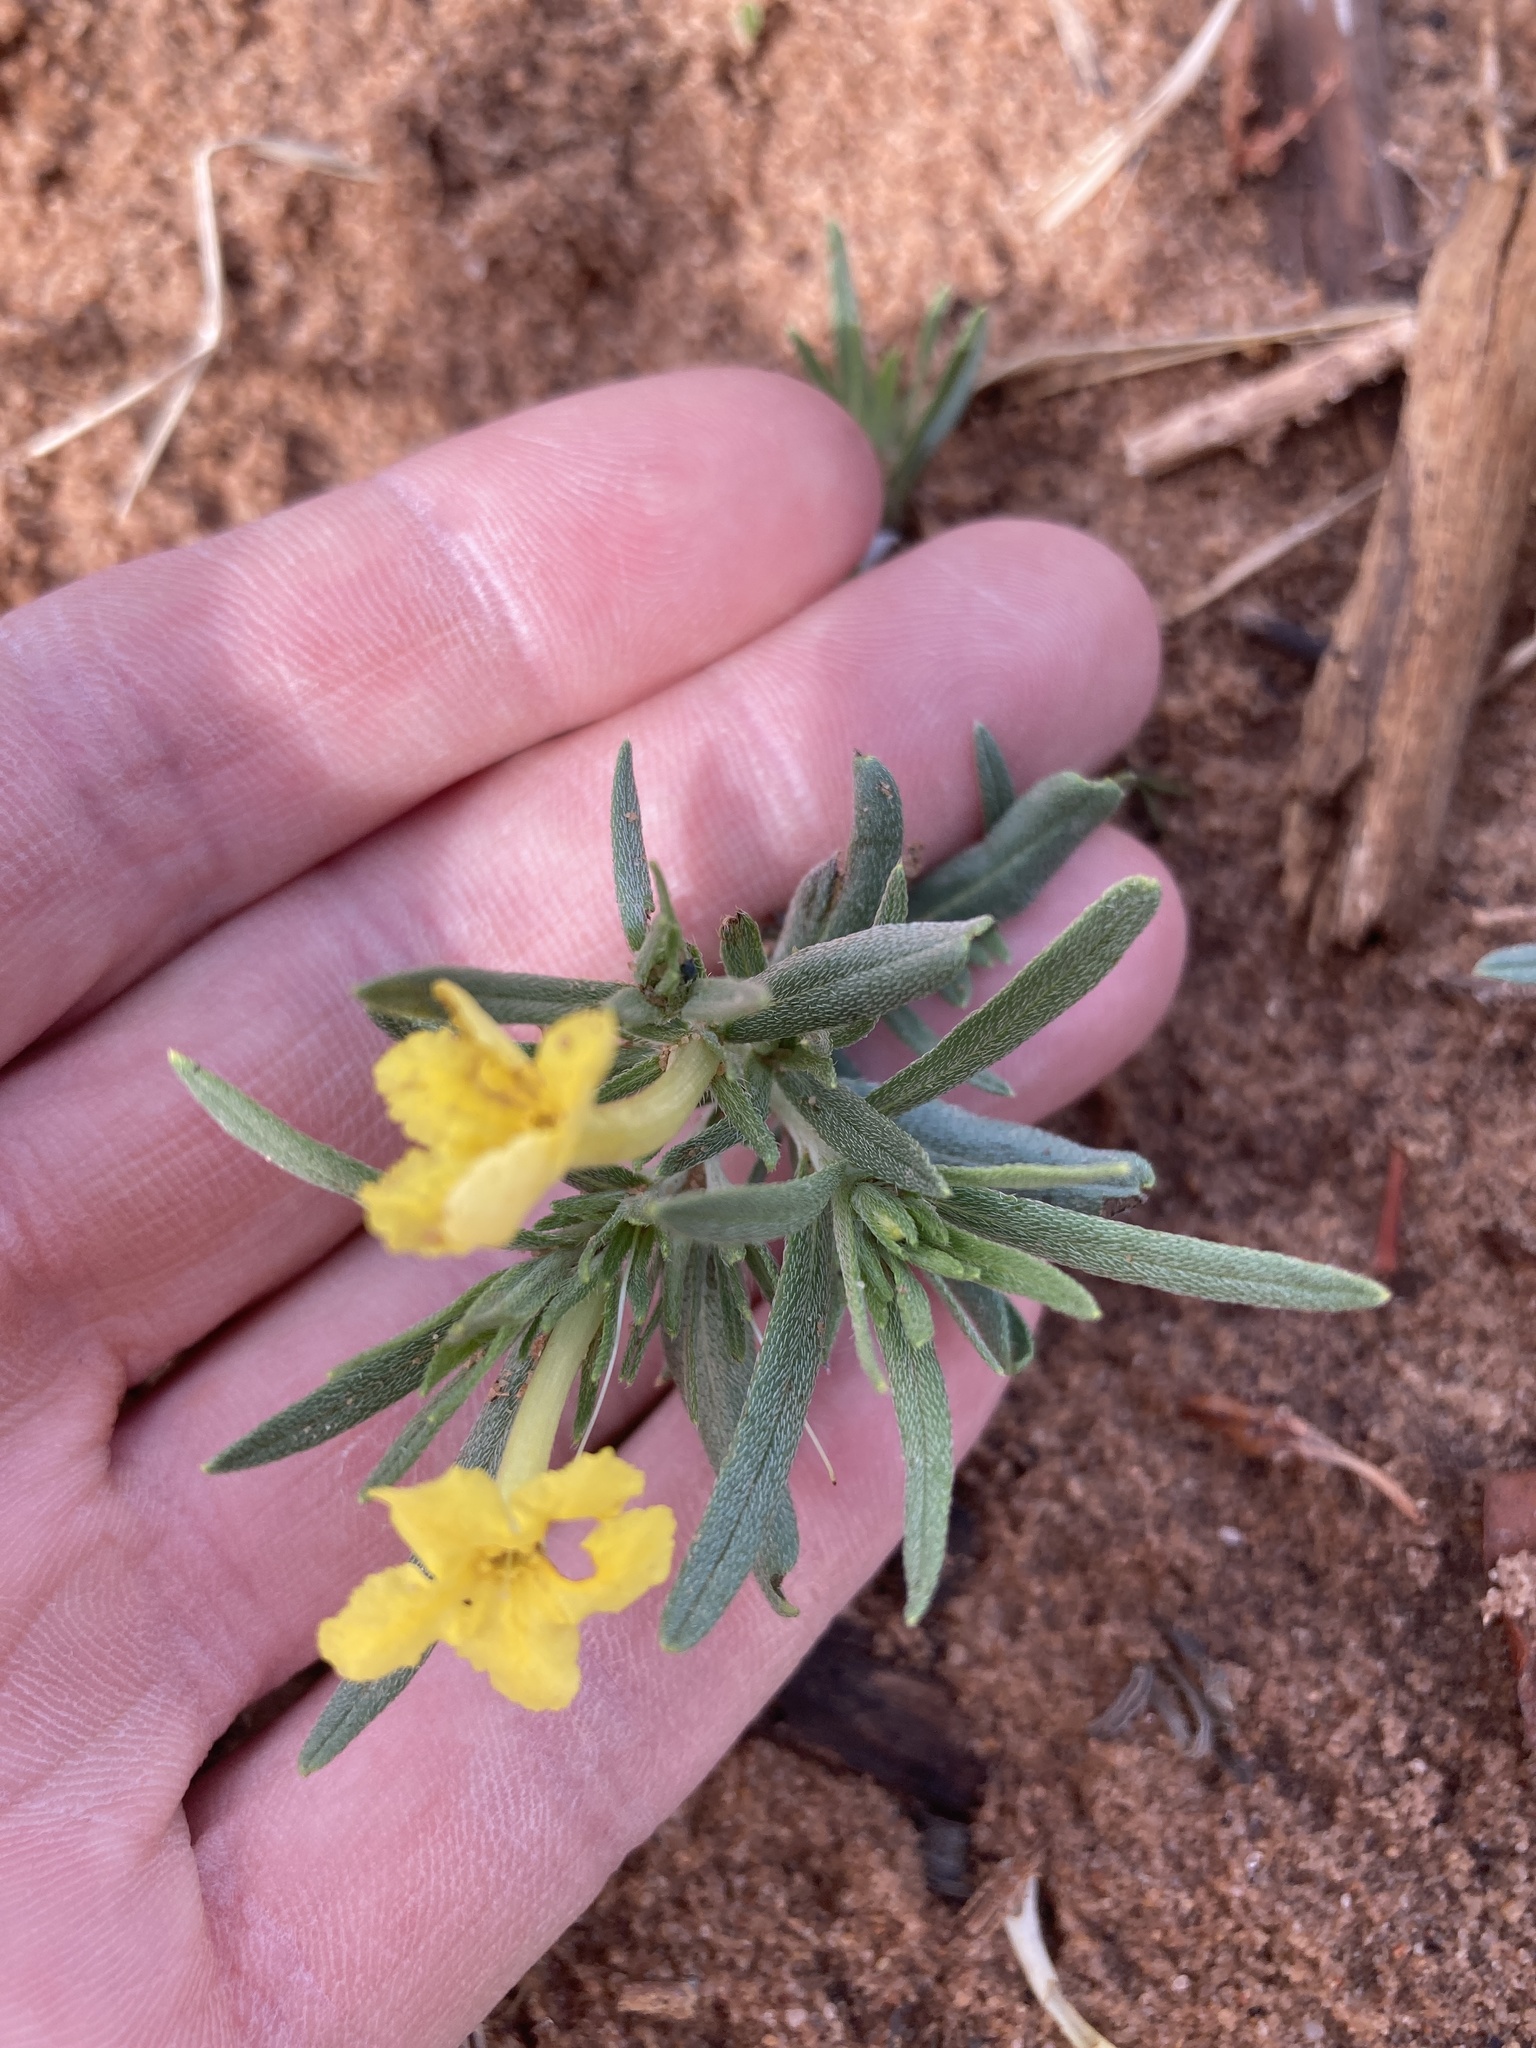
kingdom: Plantae
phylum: Tracheophyta
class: Magnoliopsida
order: Boraginales
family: Boraginaceae
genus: Lithospermum
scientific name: Lithospermum incisum
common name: Fringed gromwell
